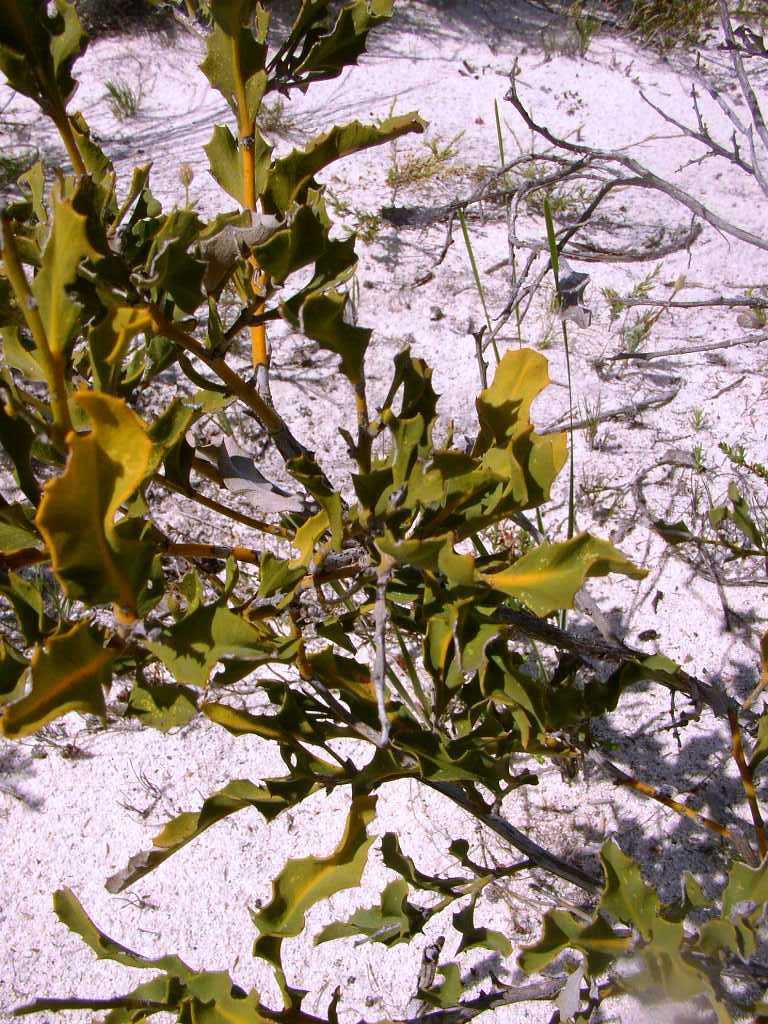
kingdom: Plantae
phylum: Tracheophyta
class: Magnoliopsida
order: Proteales
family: Proteaceae
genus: Hakea
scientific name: Hakea flabellifolia
